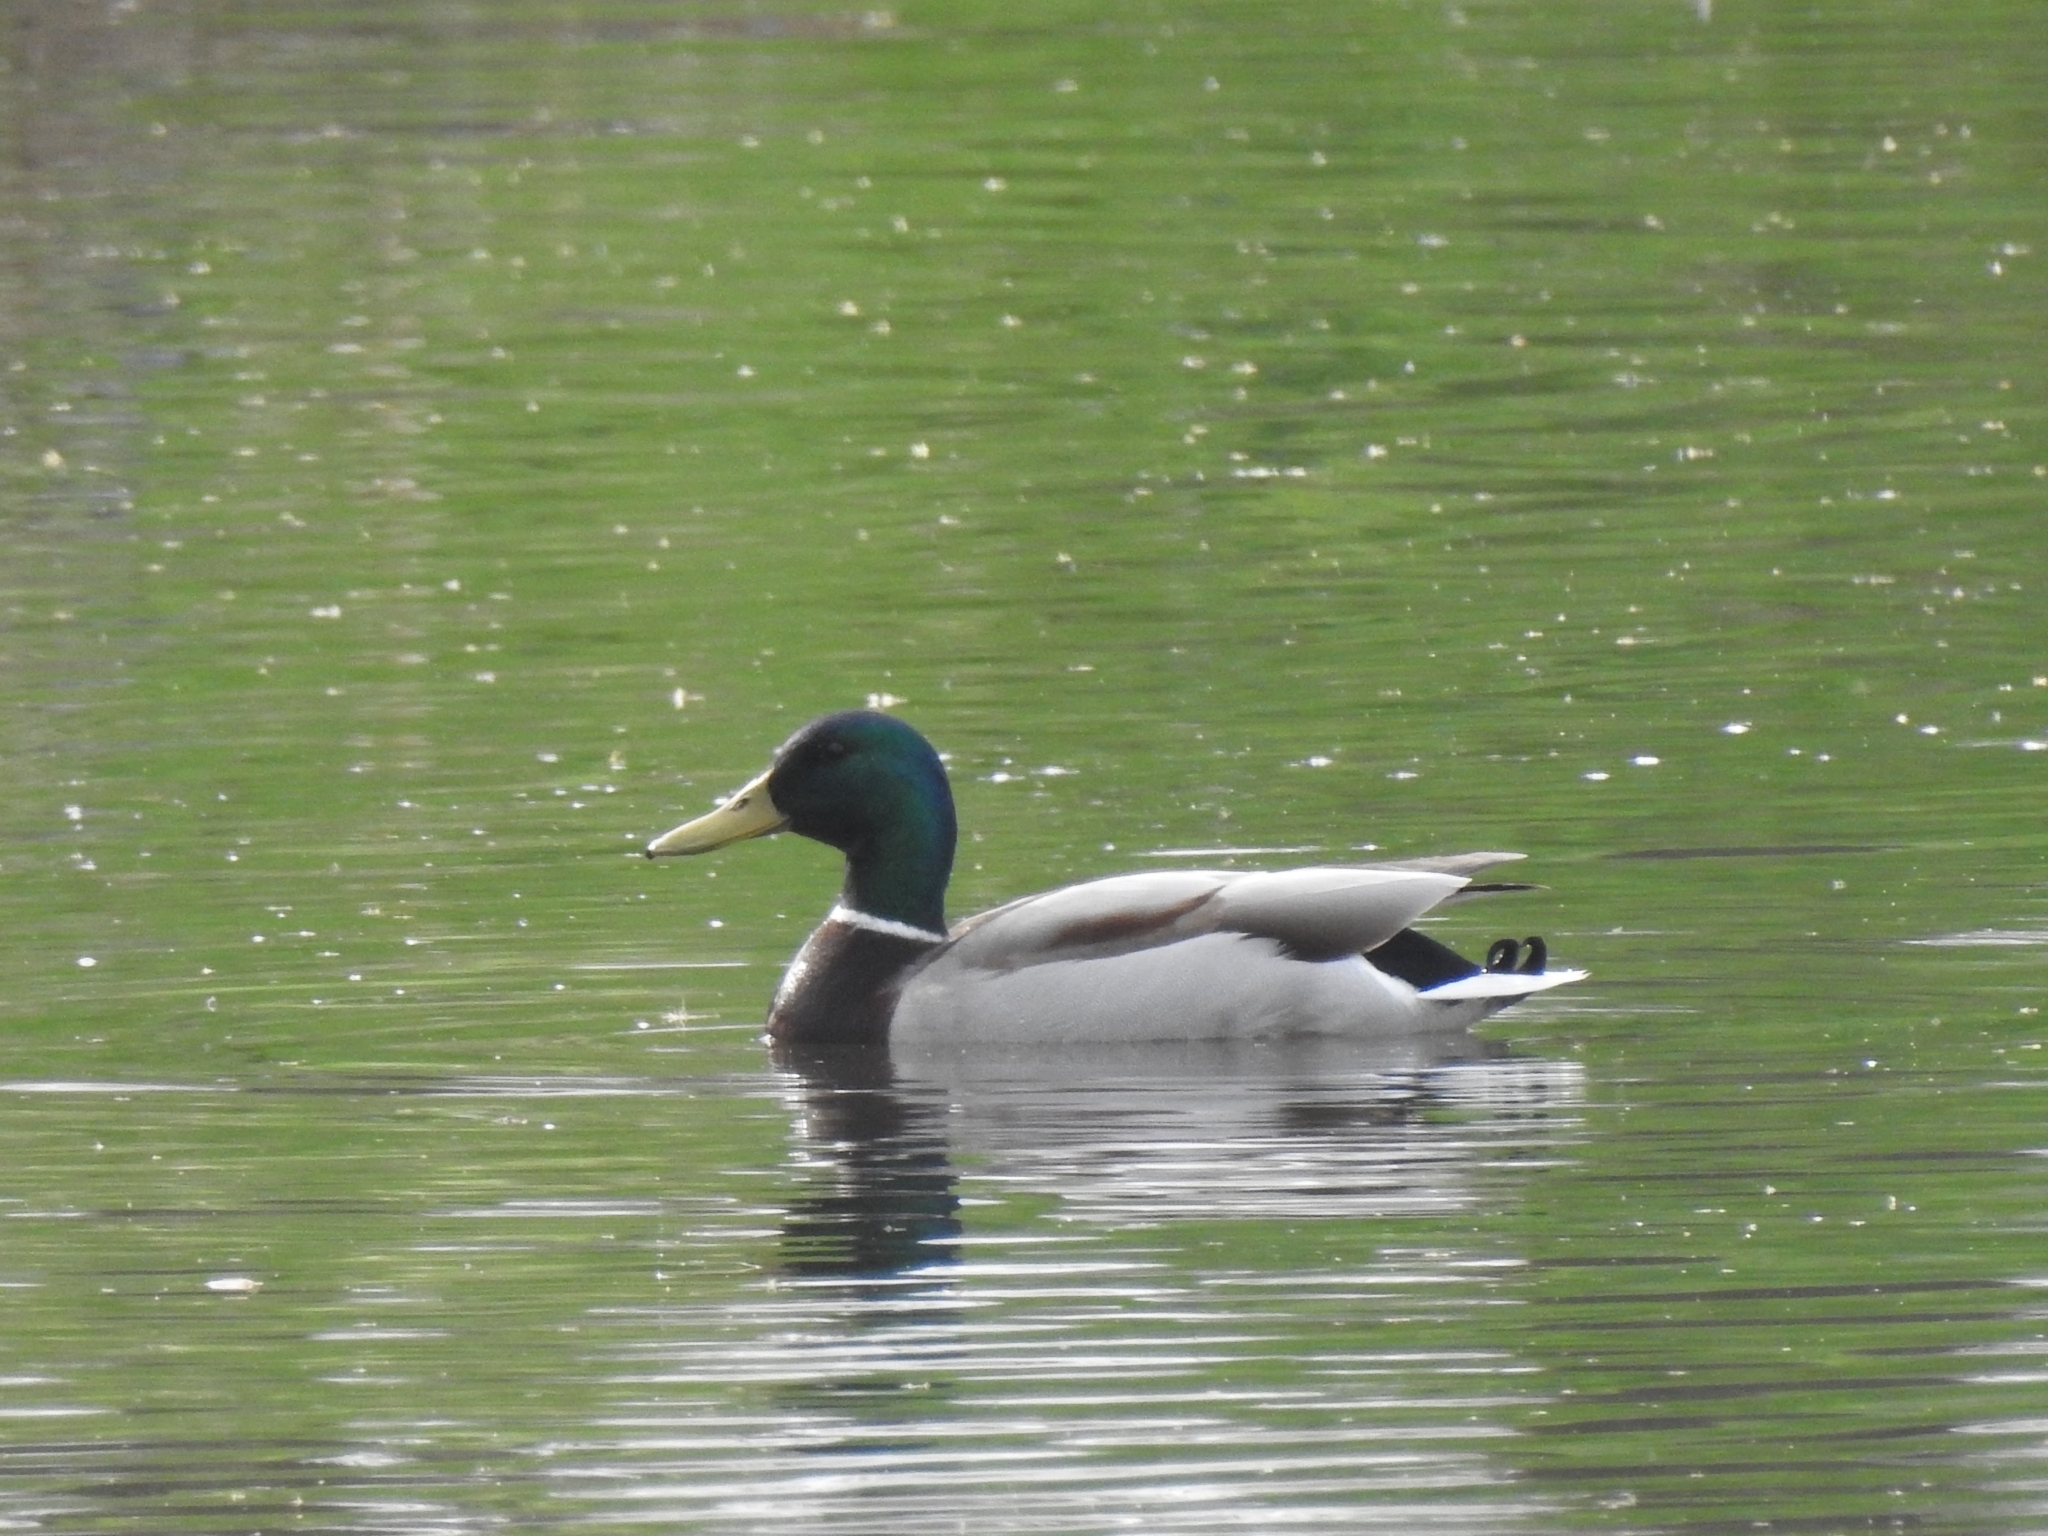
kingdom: Animalia
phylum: Chordata
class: Aves
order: Anseriformes
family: Anatidae
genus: Anas
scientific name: Anas platyrhynchos
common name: Mallard
